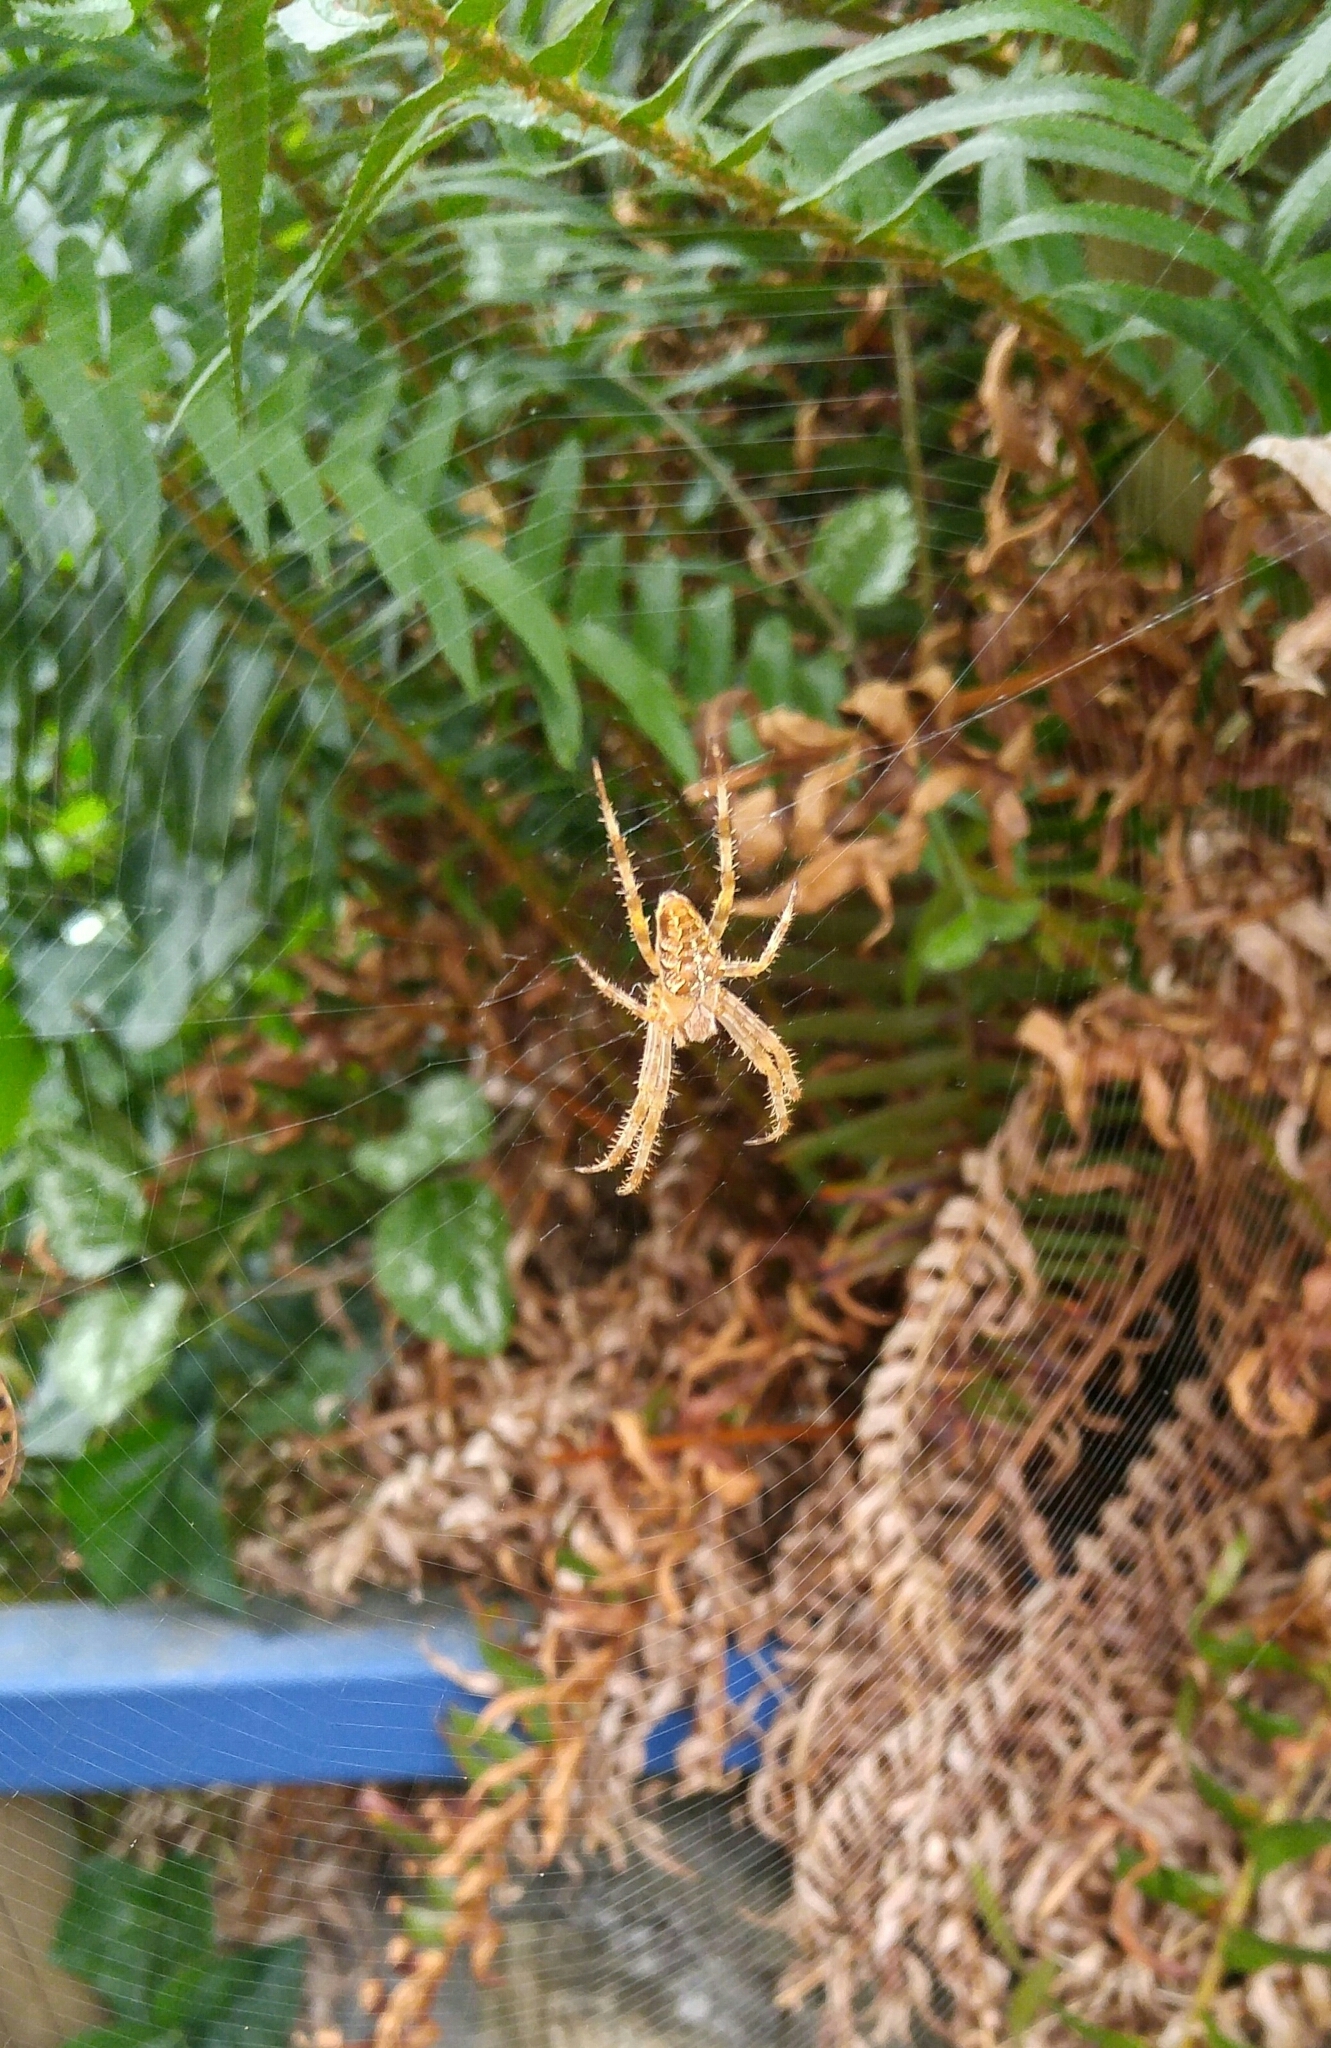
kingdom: Animalia
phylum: Arthropoda
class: Arachnida
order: Araneae
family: Araneidae
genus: Araneus
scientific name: Araneus diadematus
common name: Cross orbweaver
